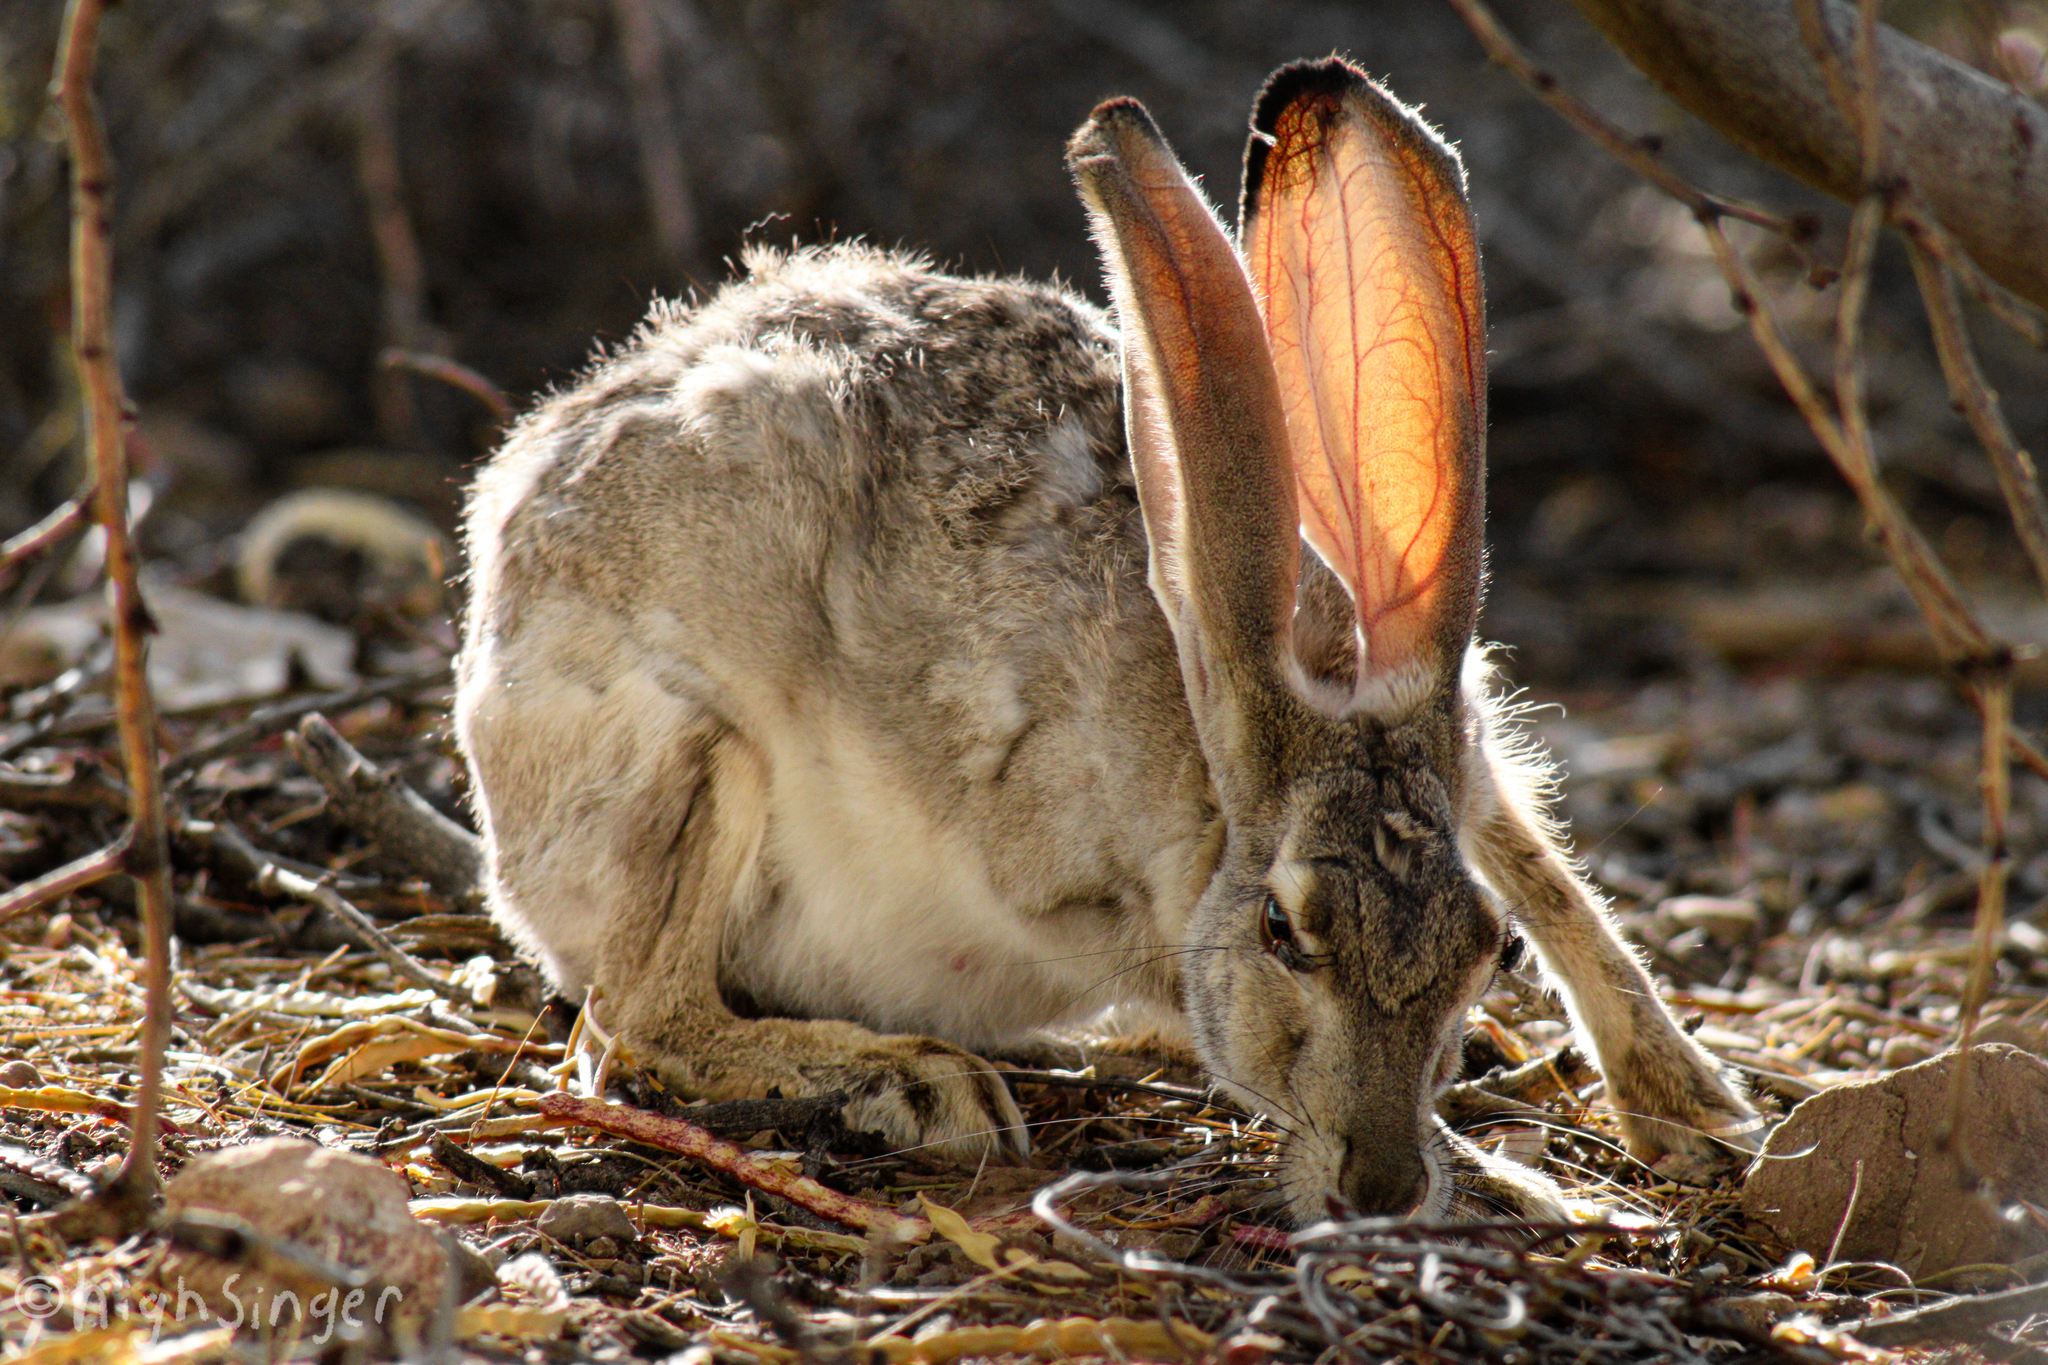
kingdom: Animalia
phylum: Chordata
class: Mammalia
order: Lagomorpha
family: Leporidae
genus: Lepus
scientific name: Lepus californicus
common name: Black-tailed jackrabbit
